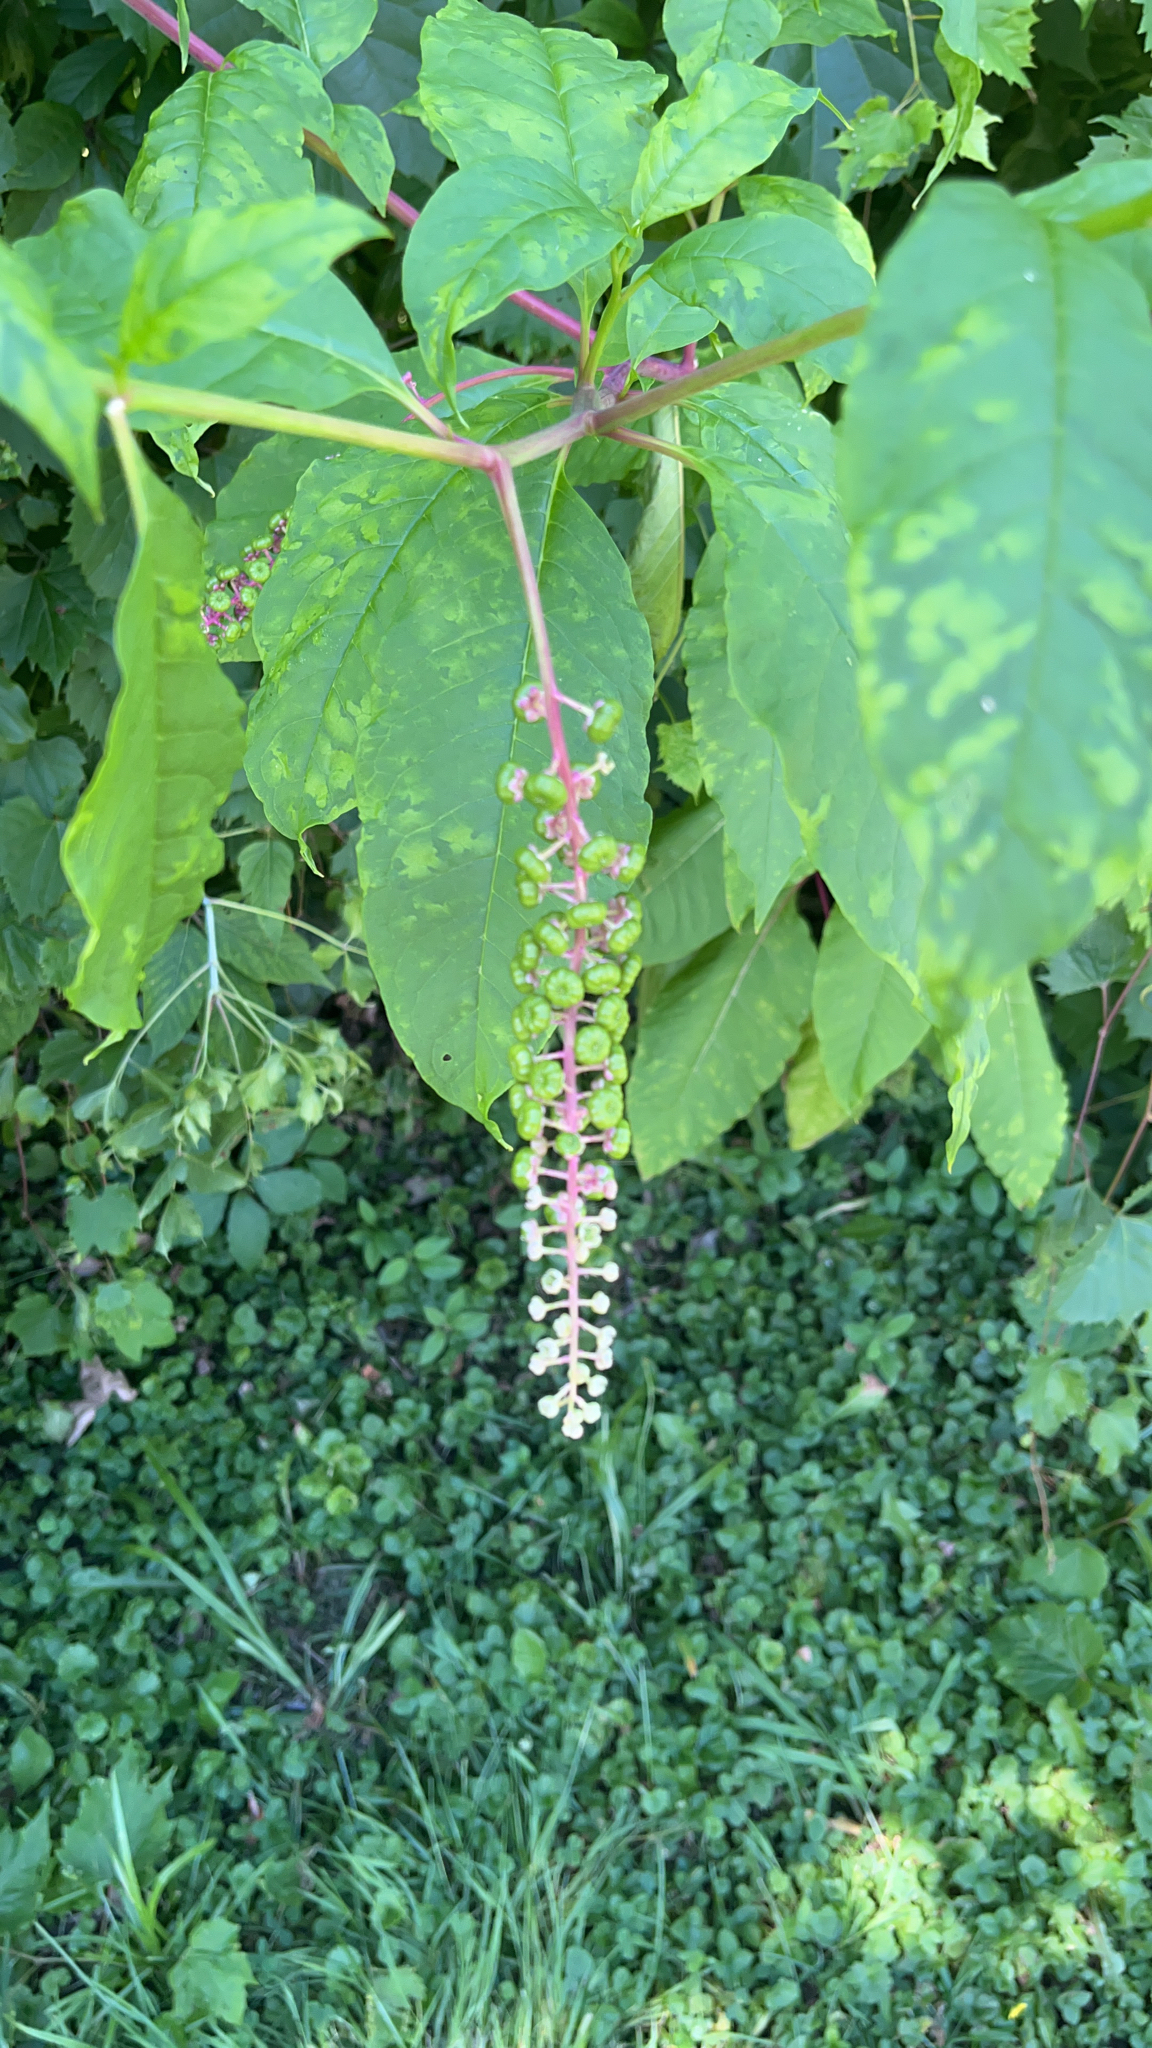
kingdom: Plantae
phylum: Tracheophyta
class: Magnoliopsida
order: Caryophyllales
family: Phytolaccaceae
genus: Phytolacca
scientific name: Phytolacca americana
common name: American pokeweed
